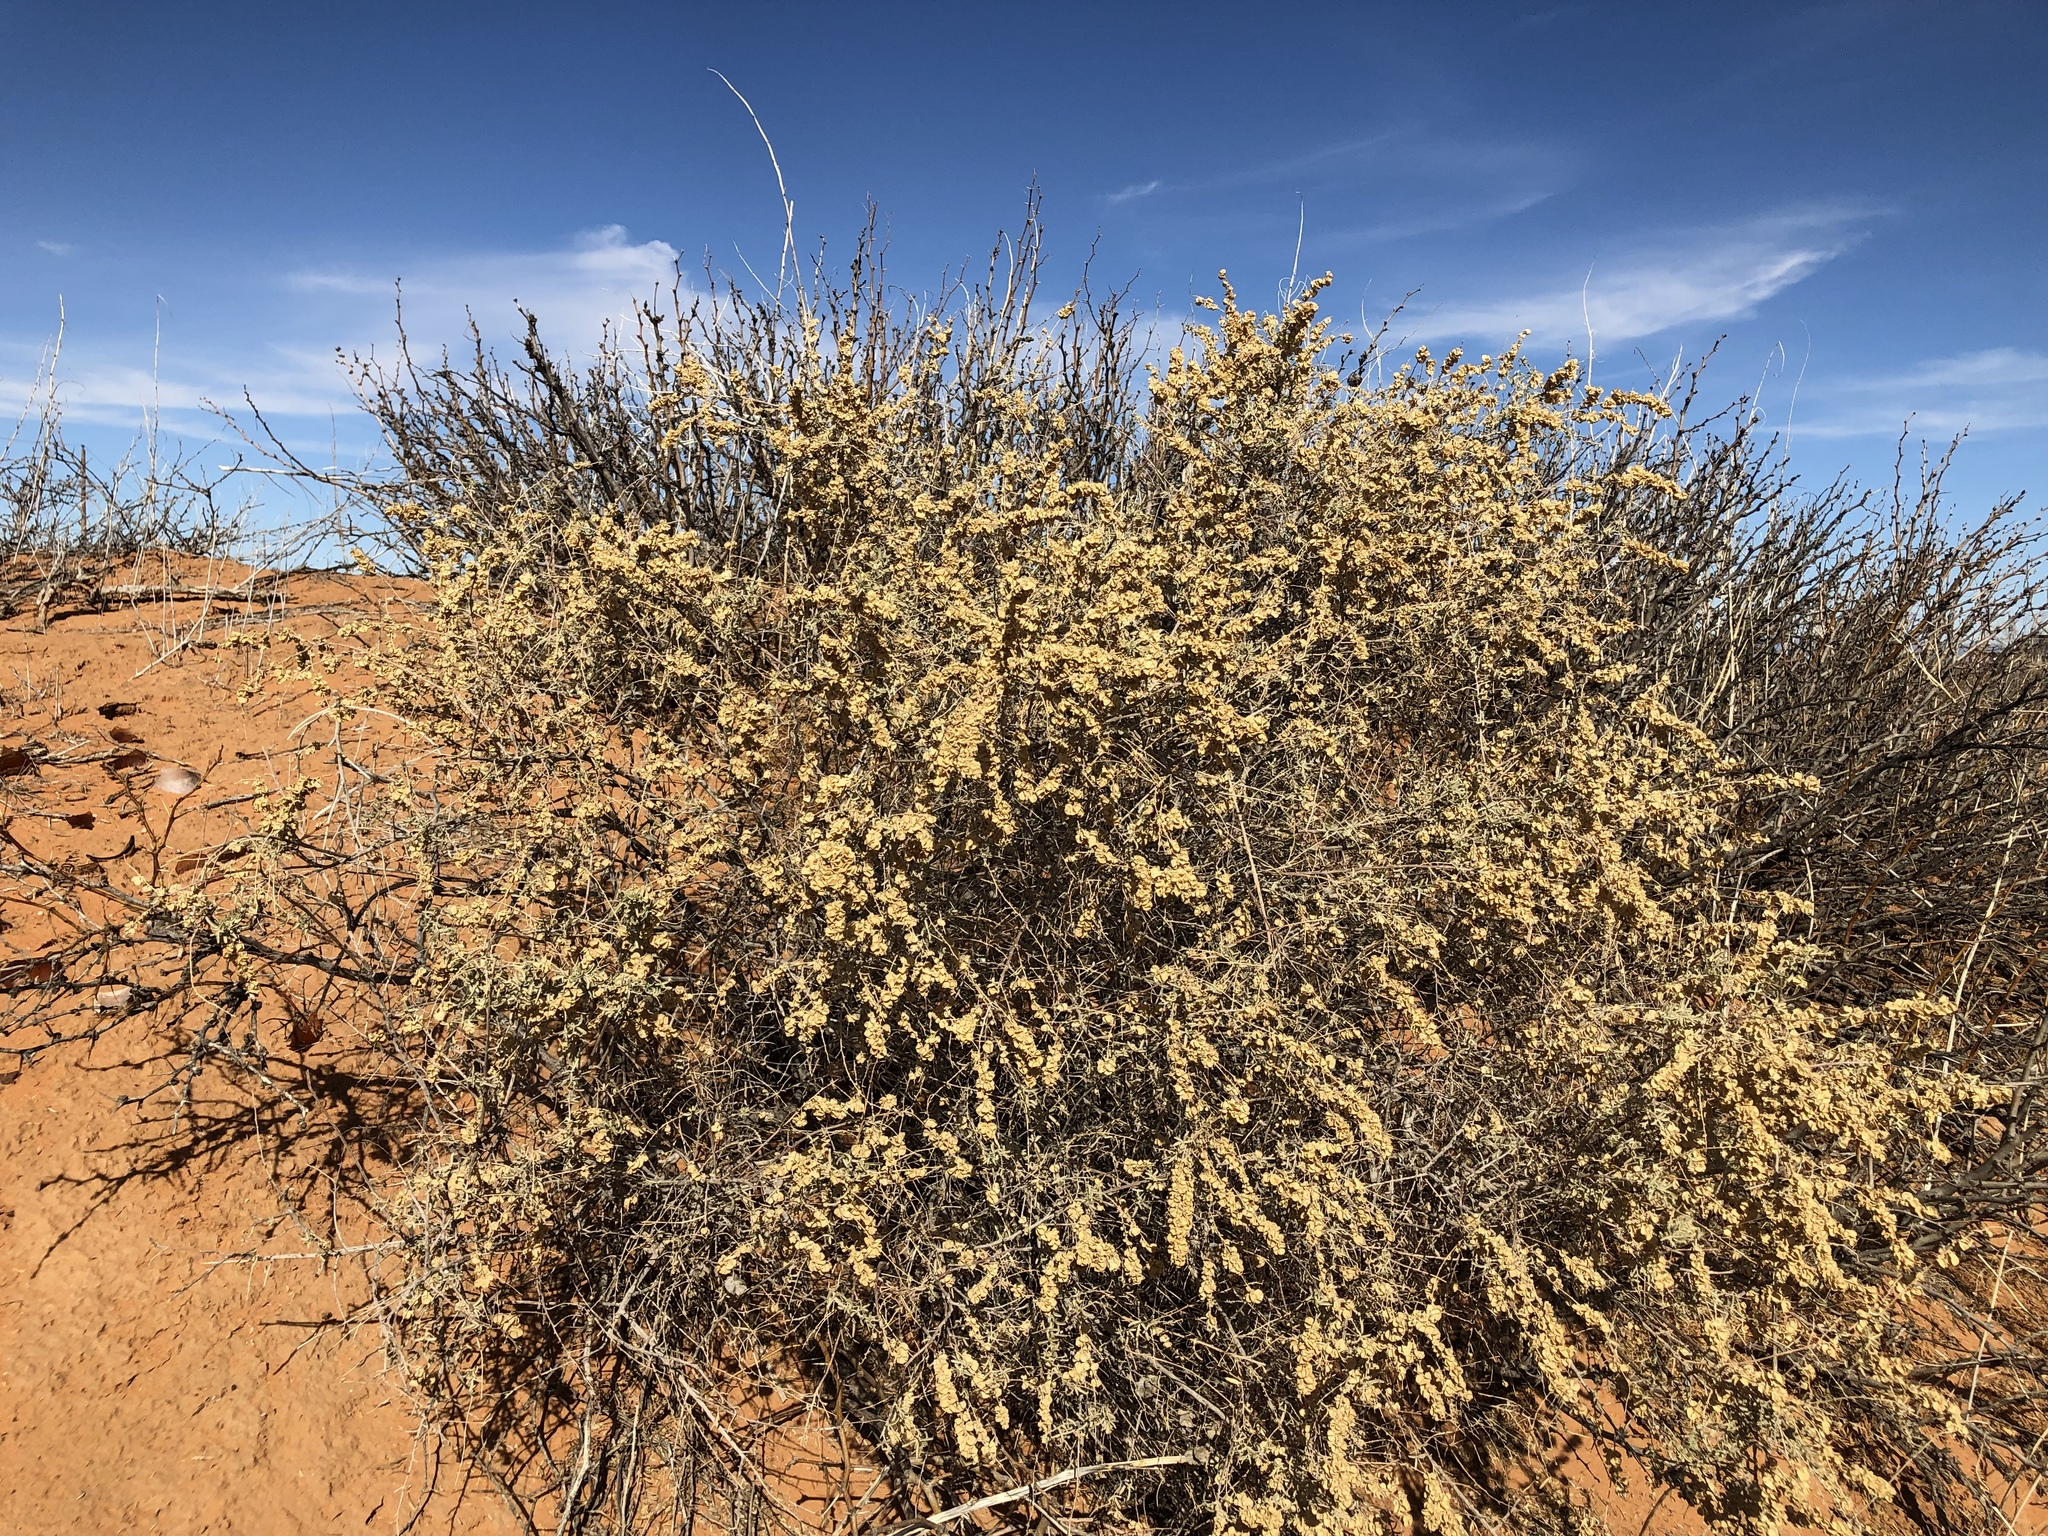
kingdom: Plantae
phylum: Tracheophyta
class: Magnoliopsida
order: Caryophyllales
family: Amaranthaceae
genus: Atriplex
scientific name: Atriplex canescens
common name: Four-wing saltbush
